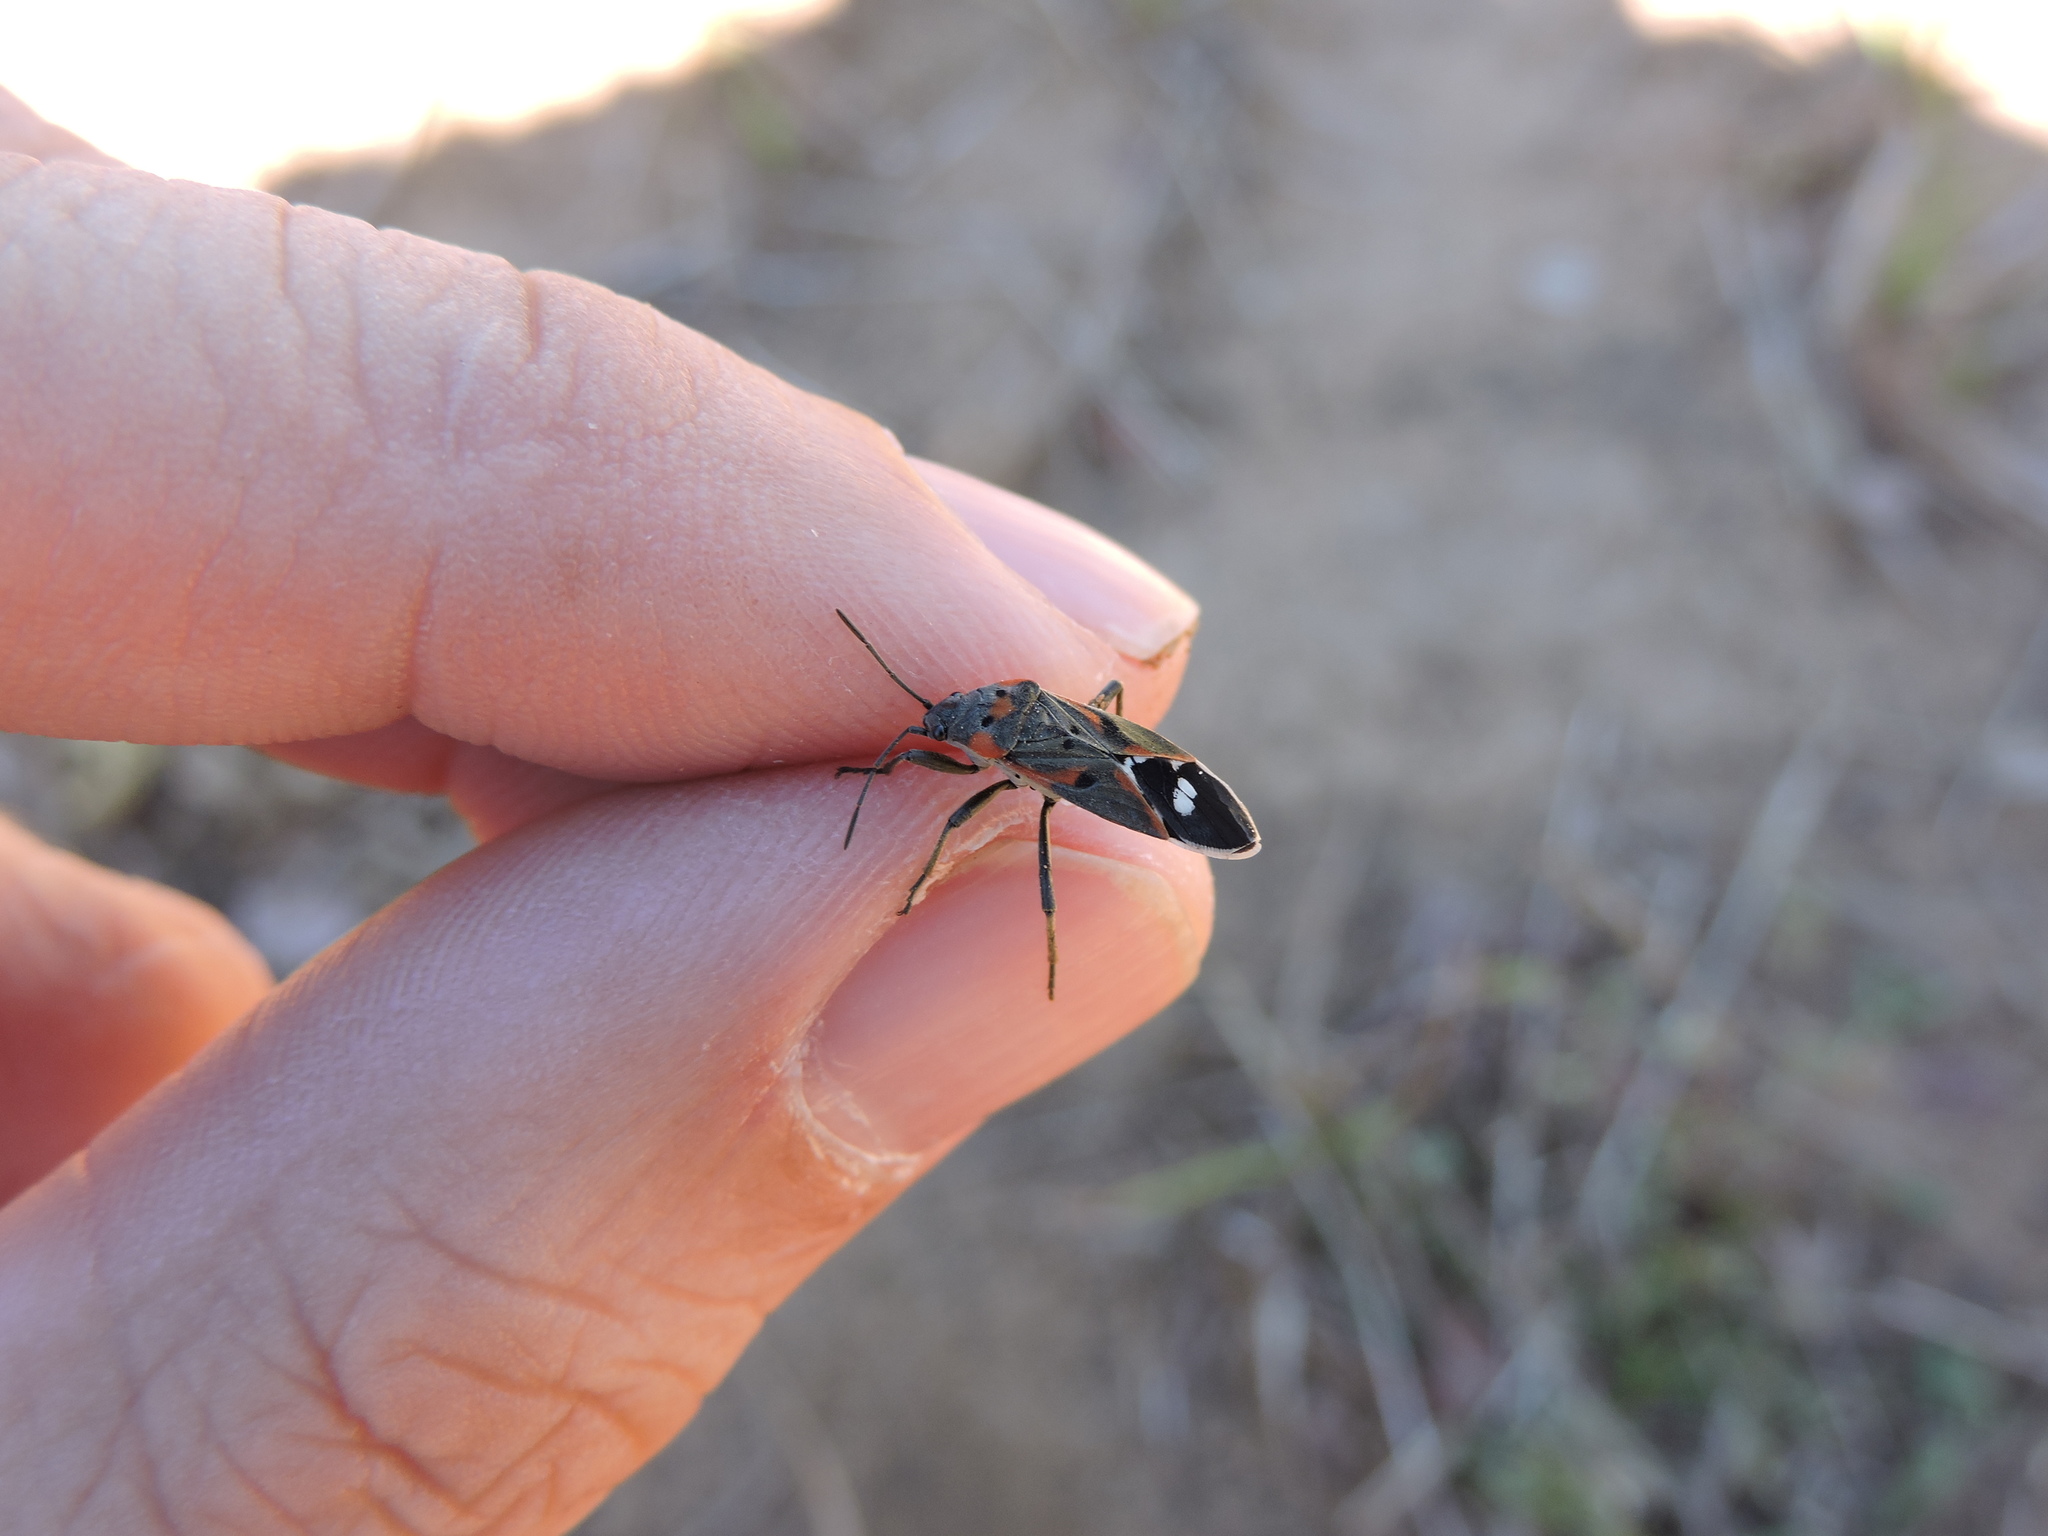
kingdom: Animalia
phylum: Arthropoda
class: Insecta
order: Hemiptera
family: Lygaeidae
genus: Lygaeus
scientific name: Lygaeus kalmii
